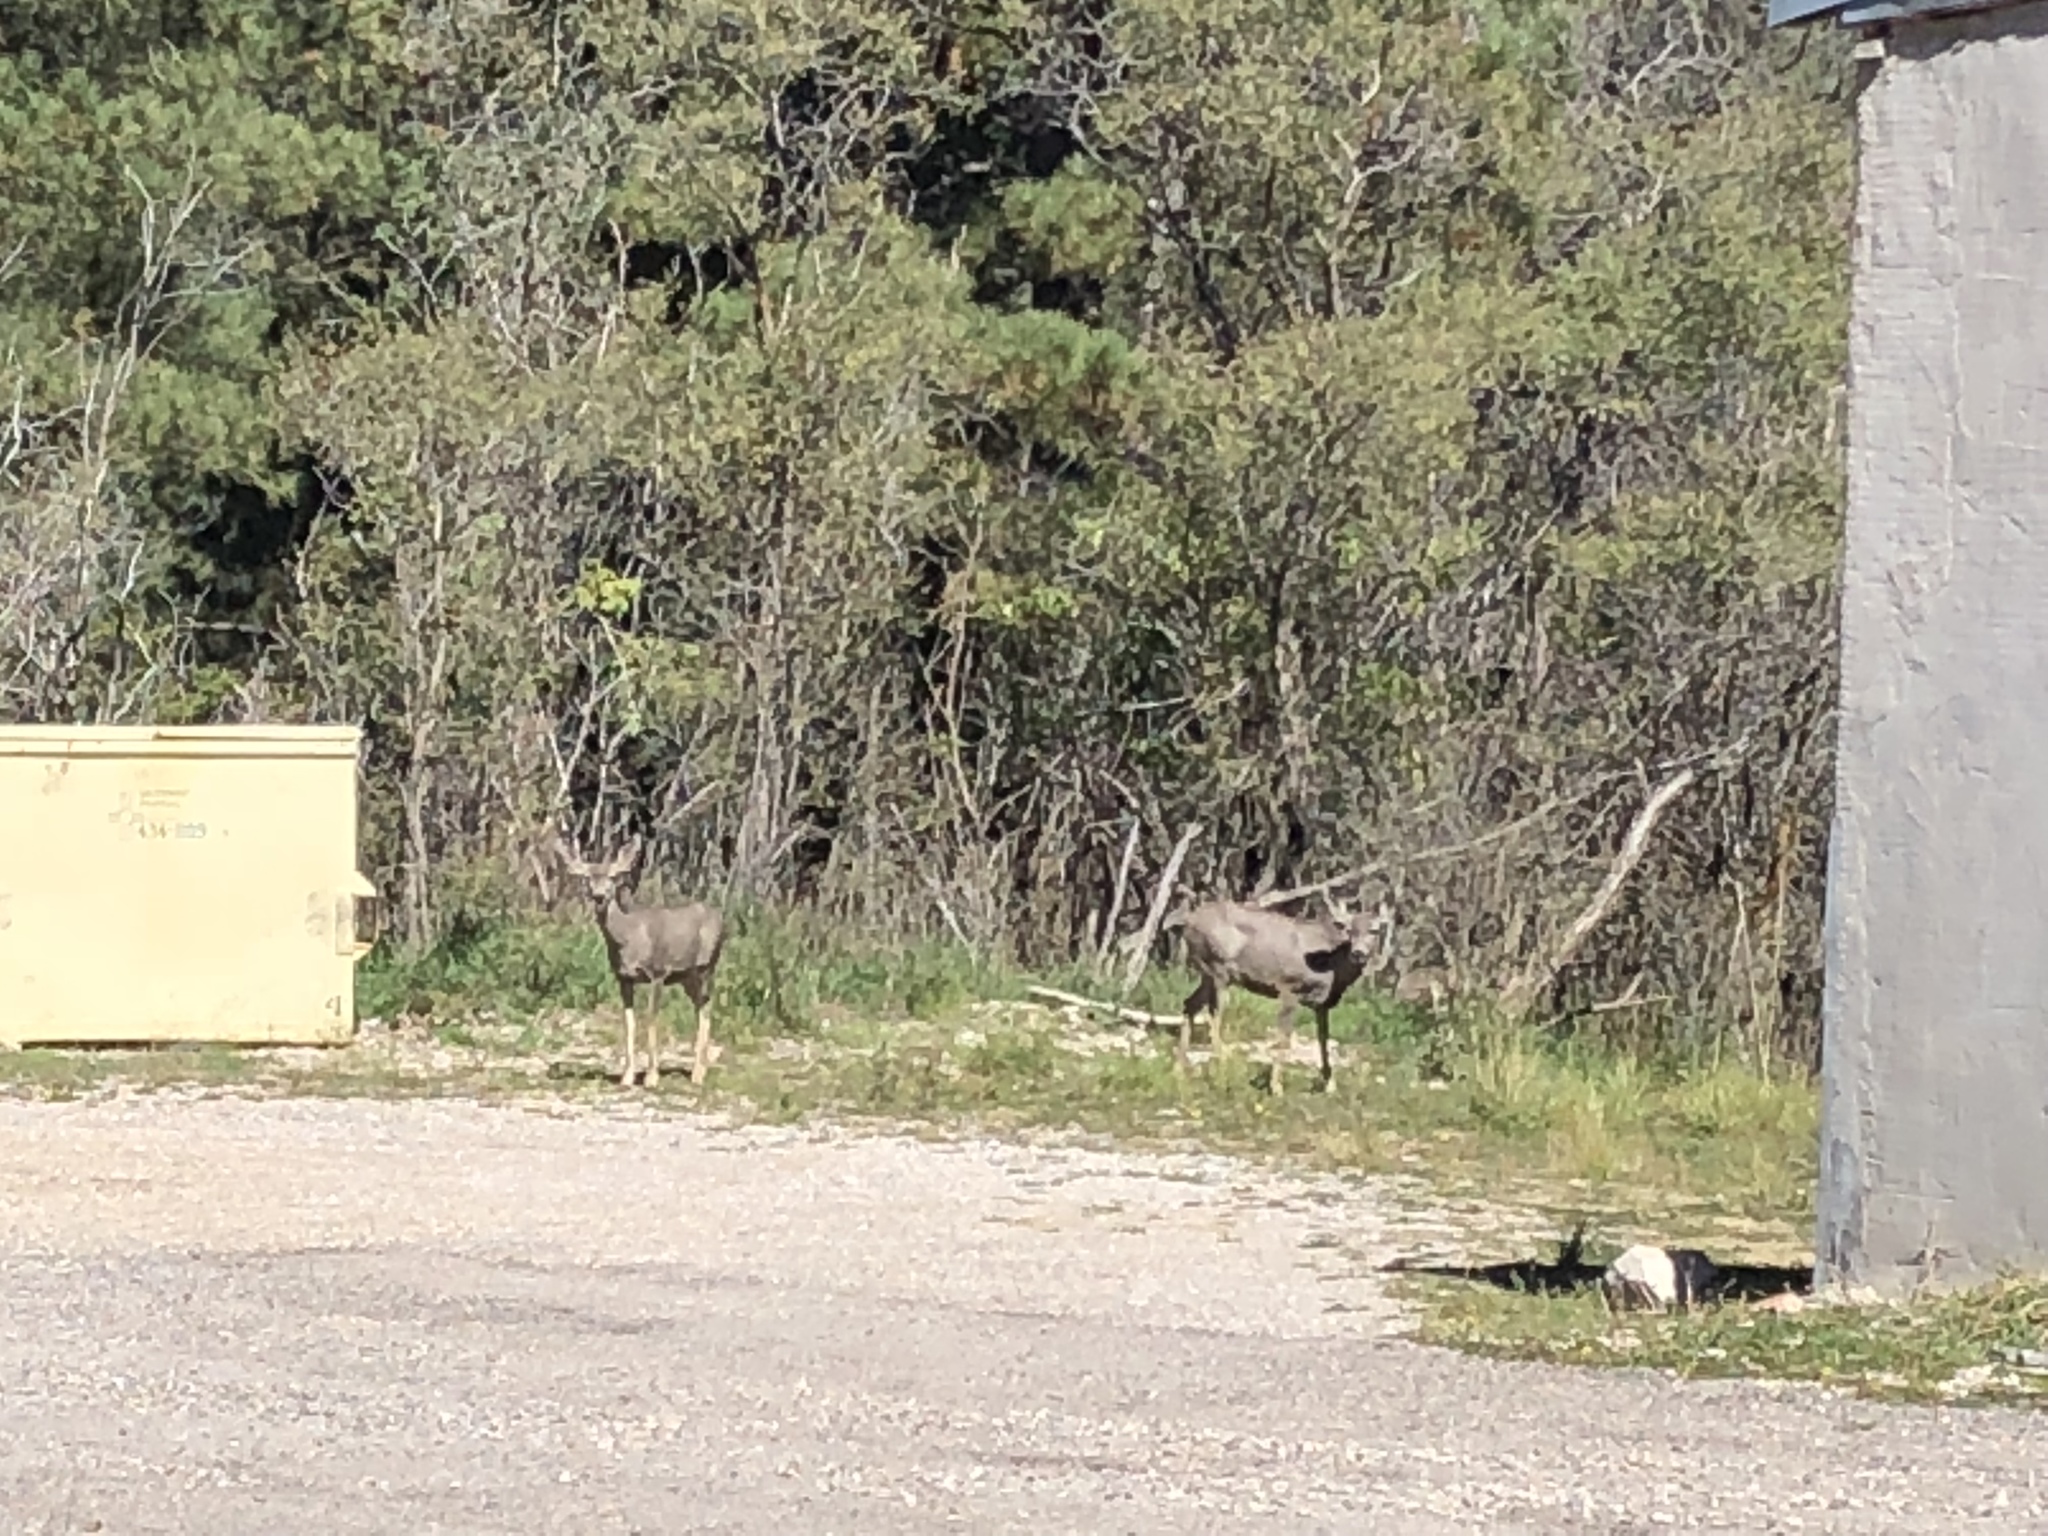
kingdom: Animalia
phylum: Chordata
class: Mammalia
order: Artiodactyla
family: Cervidae
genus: Odocoileus
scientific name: Odocoileus hemionus
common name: Mule deer
